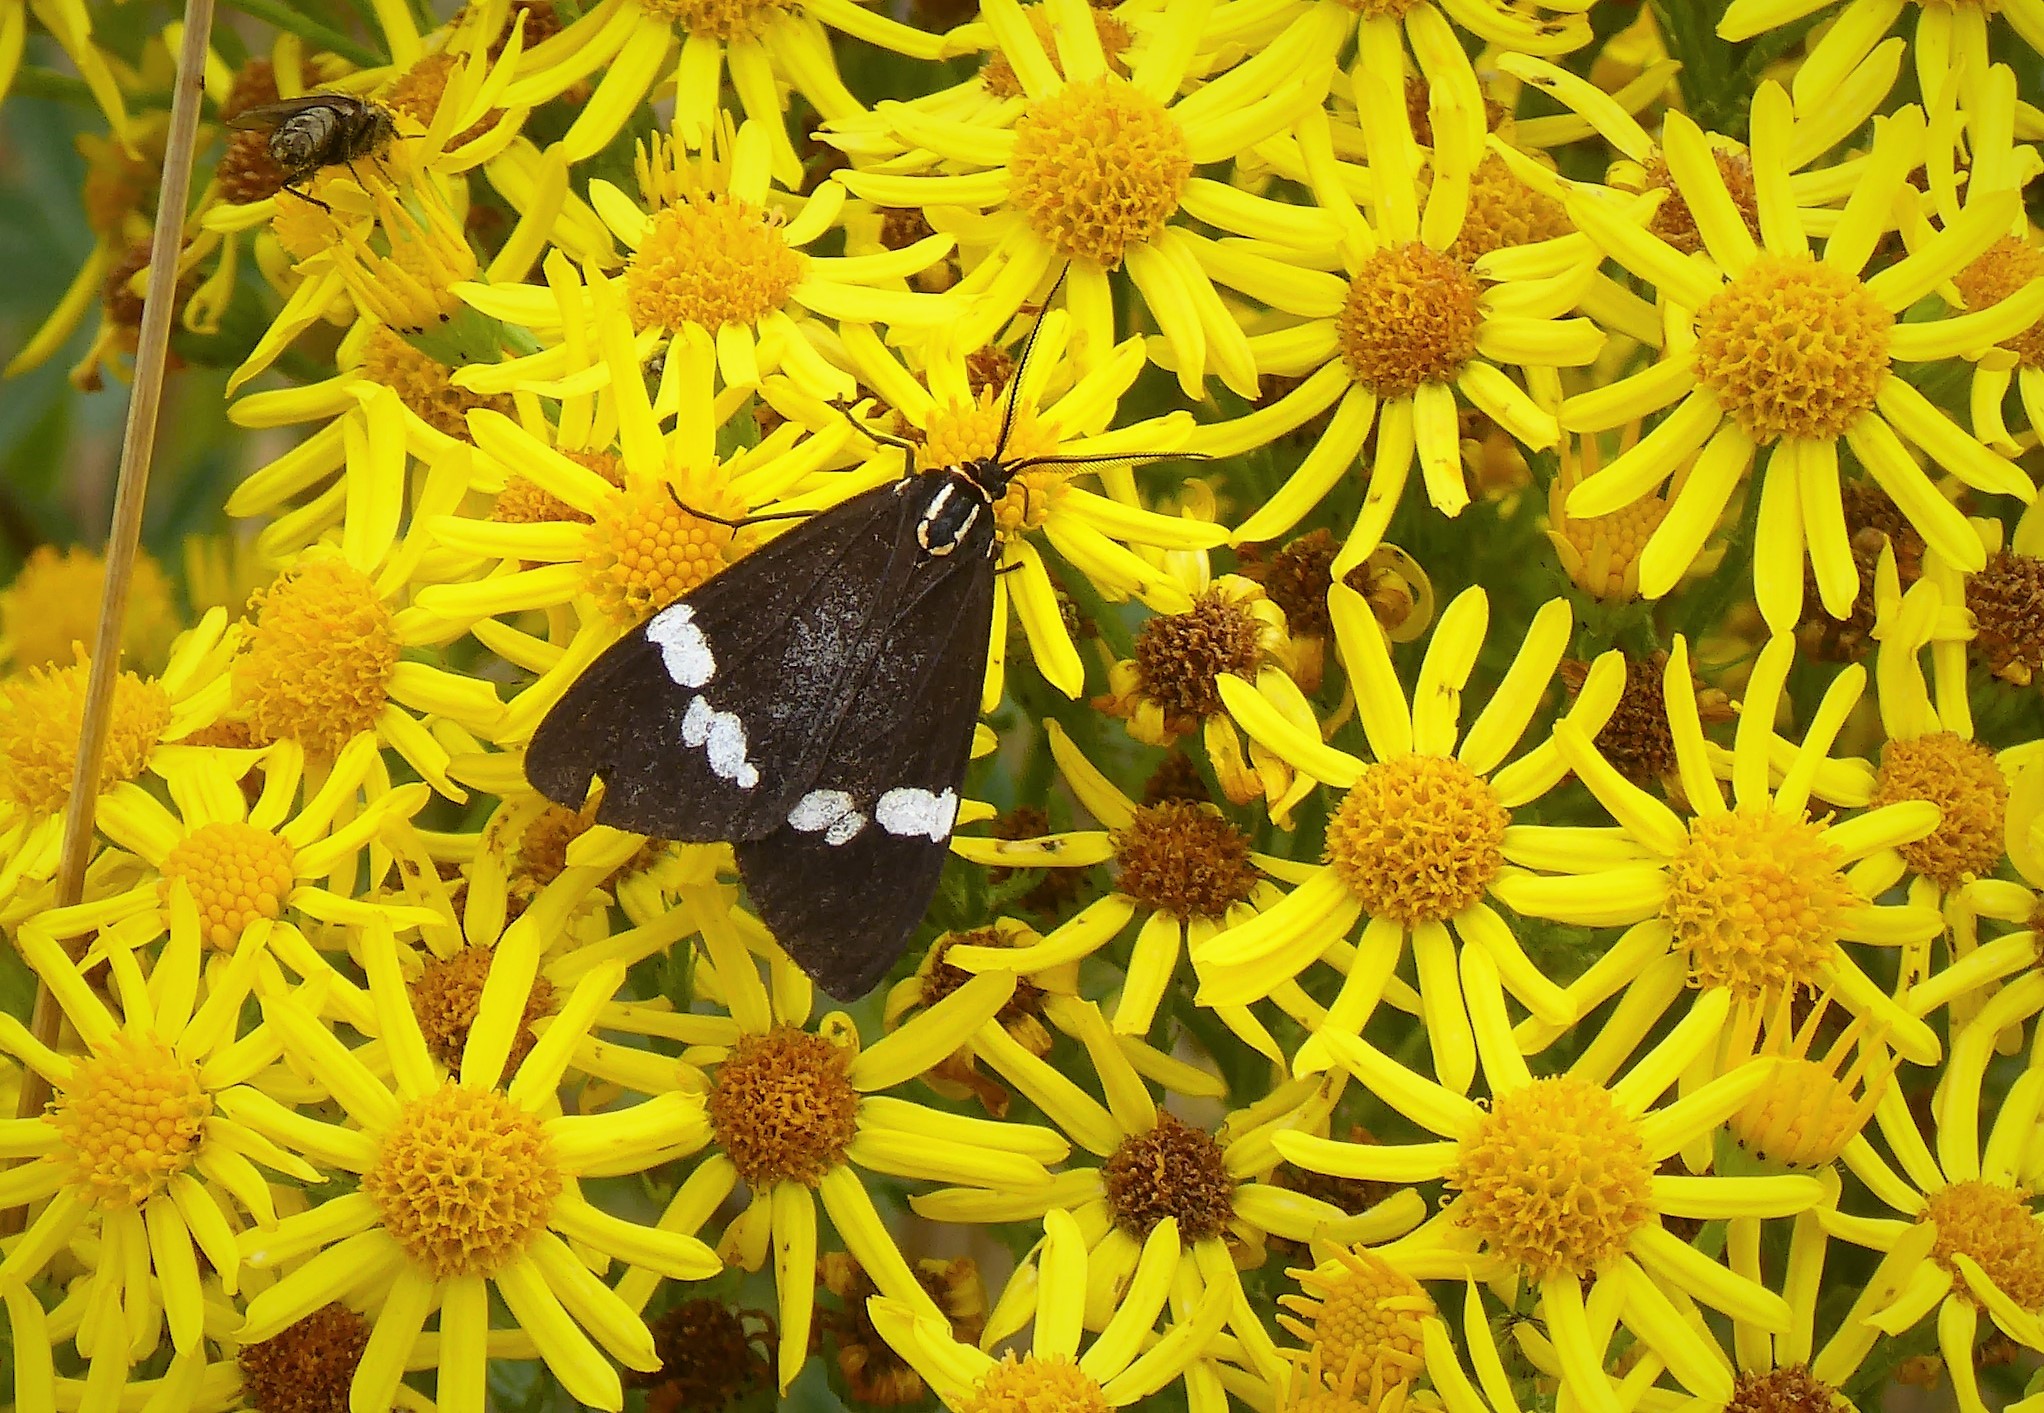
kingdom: Animalia
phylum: Arthropoda
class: Insecta
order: Lepidoptera
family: Erebidae
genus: Nyctemera
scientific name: Nyctemera annulatum
